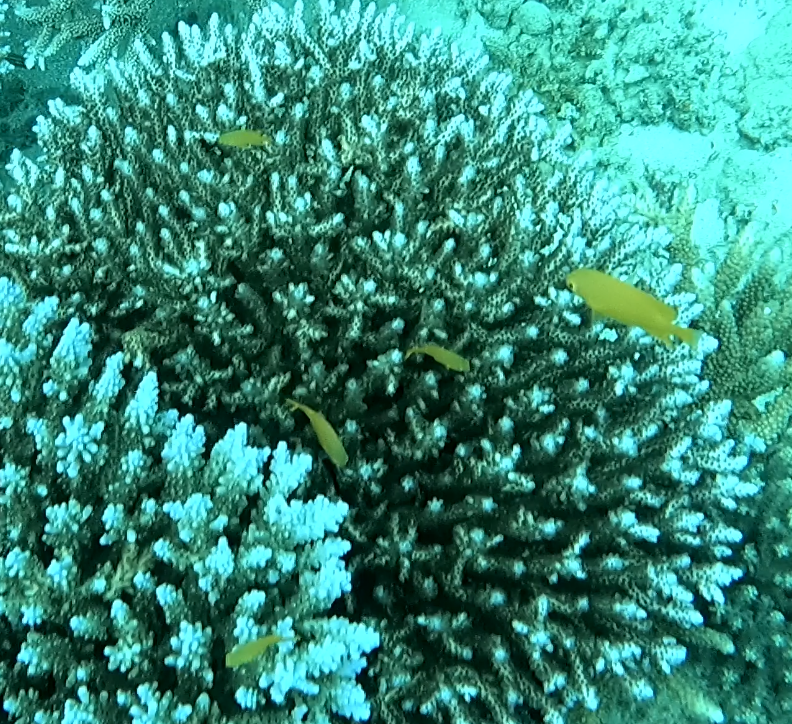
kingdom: Animalia
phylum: Chordata
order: Perciformes
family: Pomacentridae
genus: Pomacentrus
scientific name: Pomacentrus moluccensis
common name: Lemon damsel
